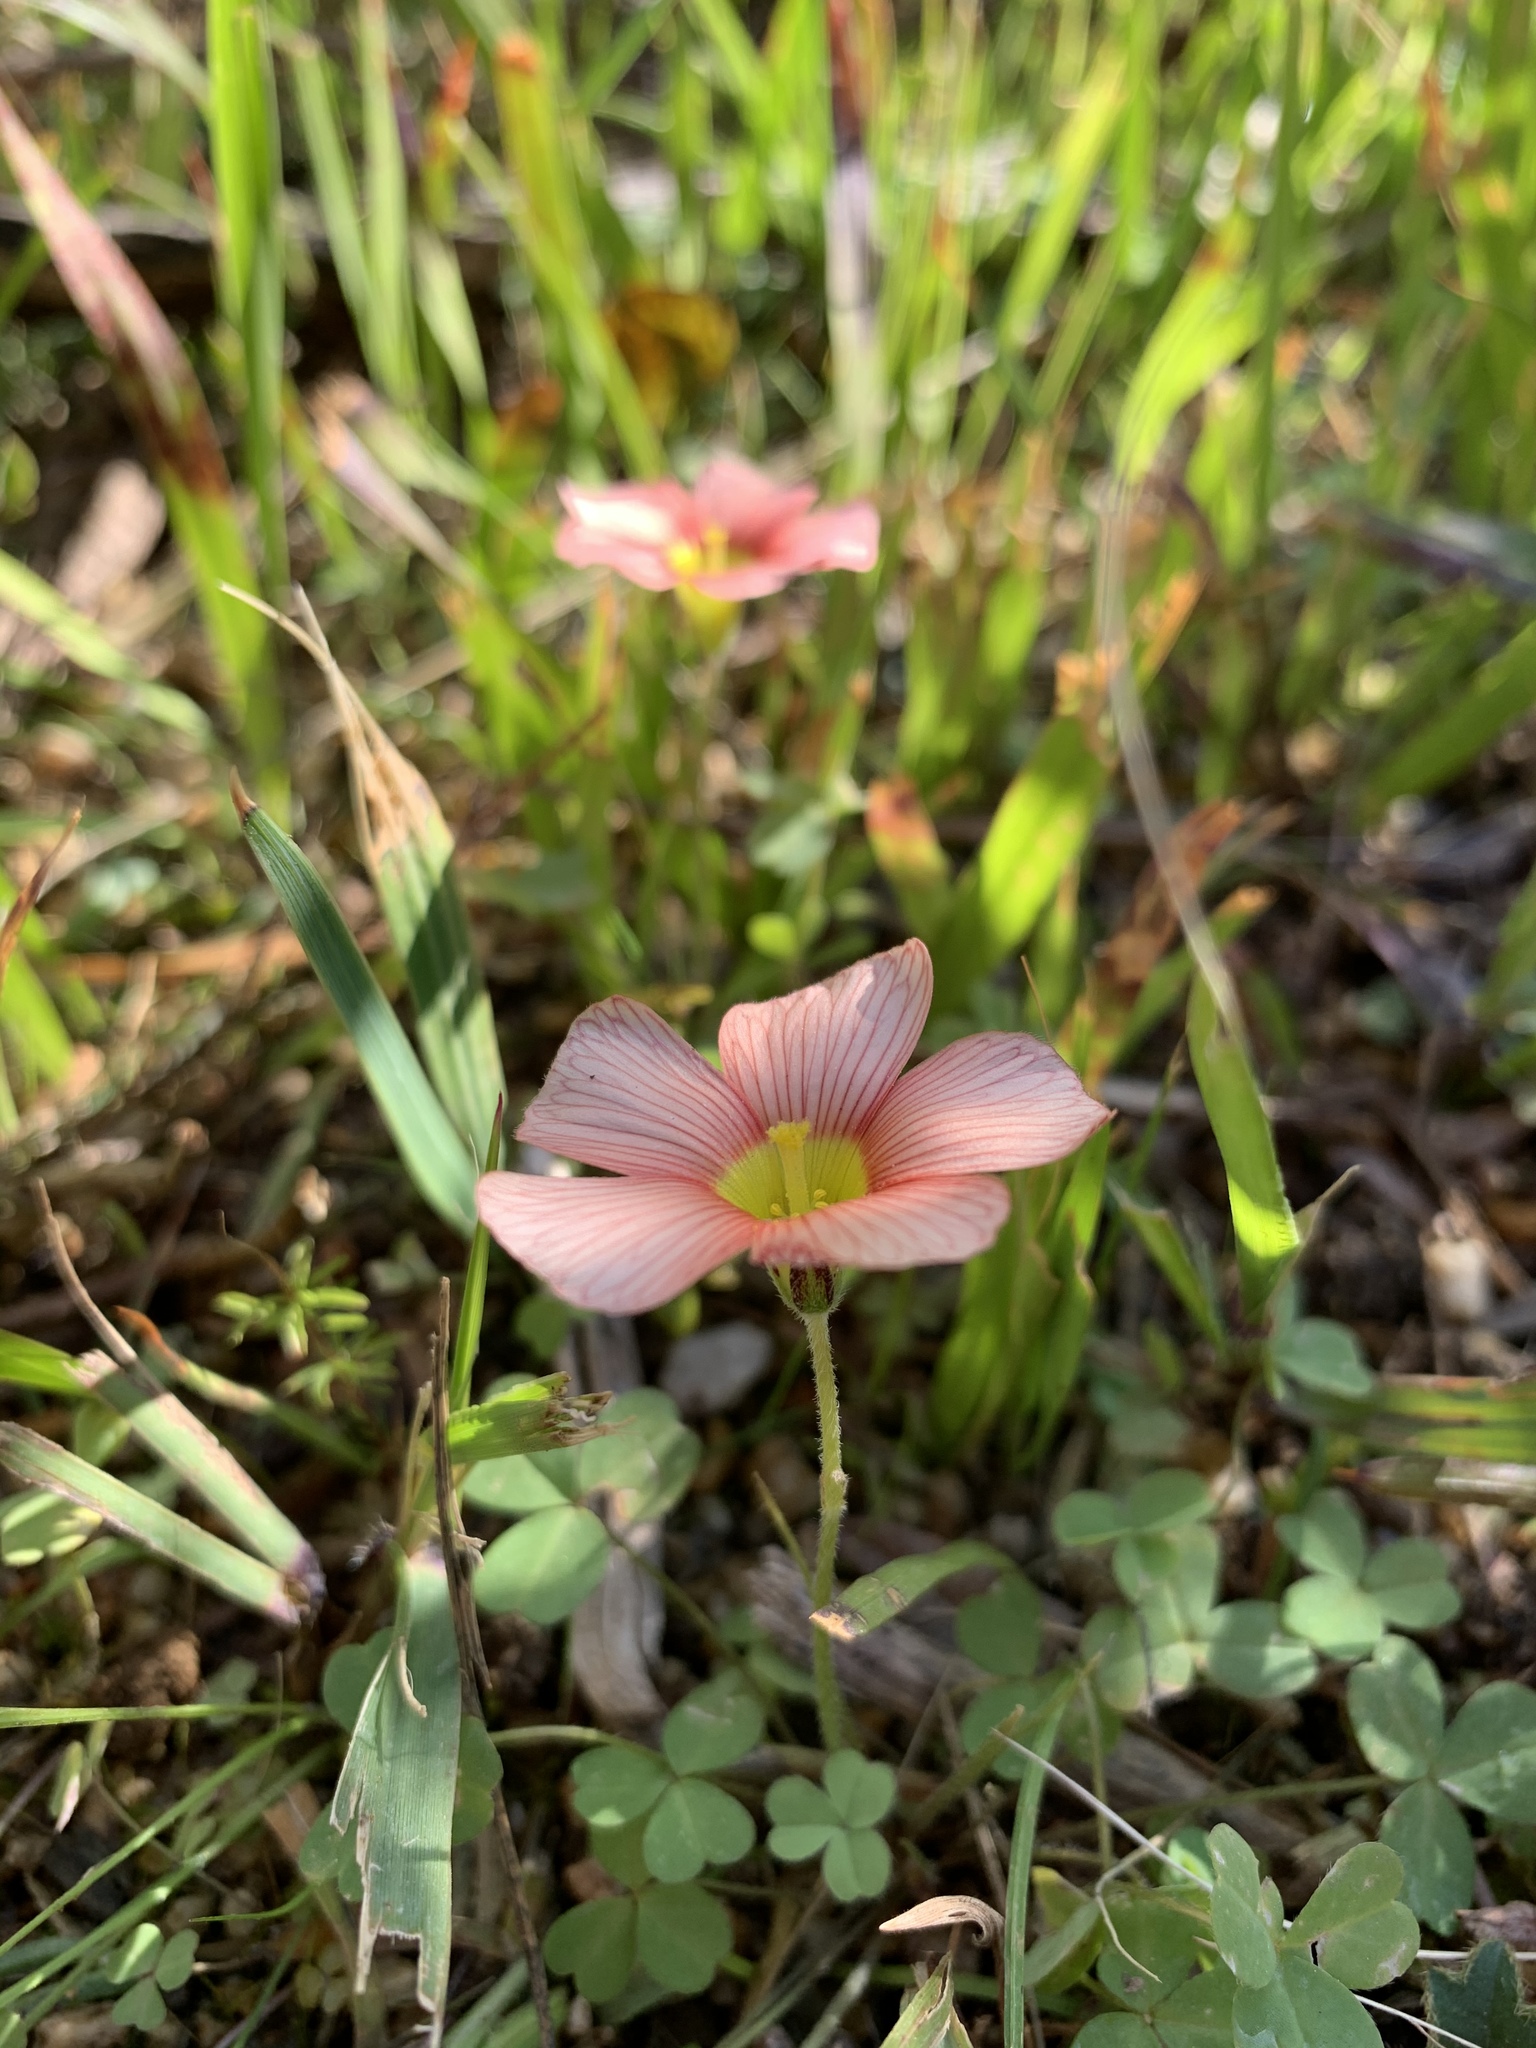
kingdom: Plantae
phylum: Tracheophyta
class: Magnoliopsida
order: Oxalidales
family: Oxalidaceae
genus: Oxalis
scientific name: Oxalis obtusa
